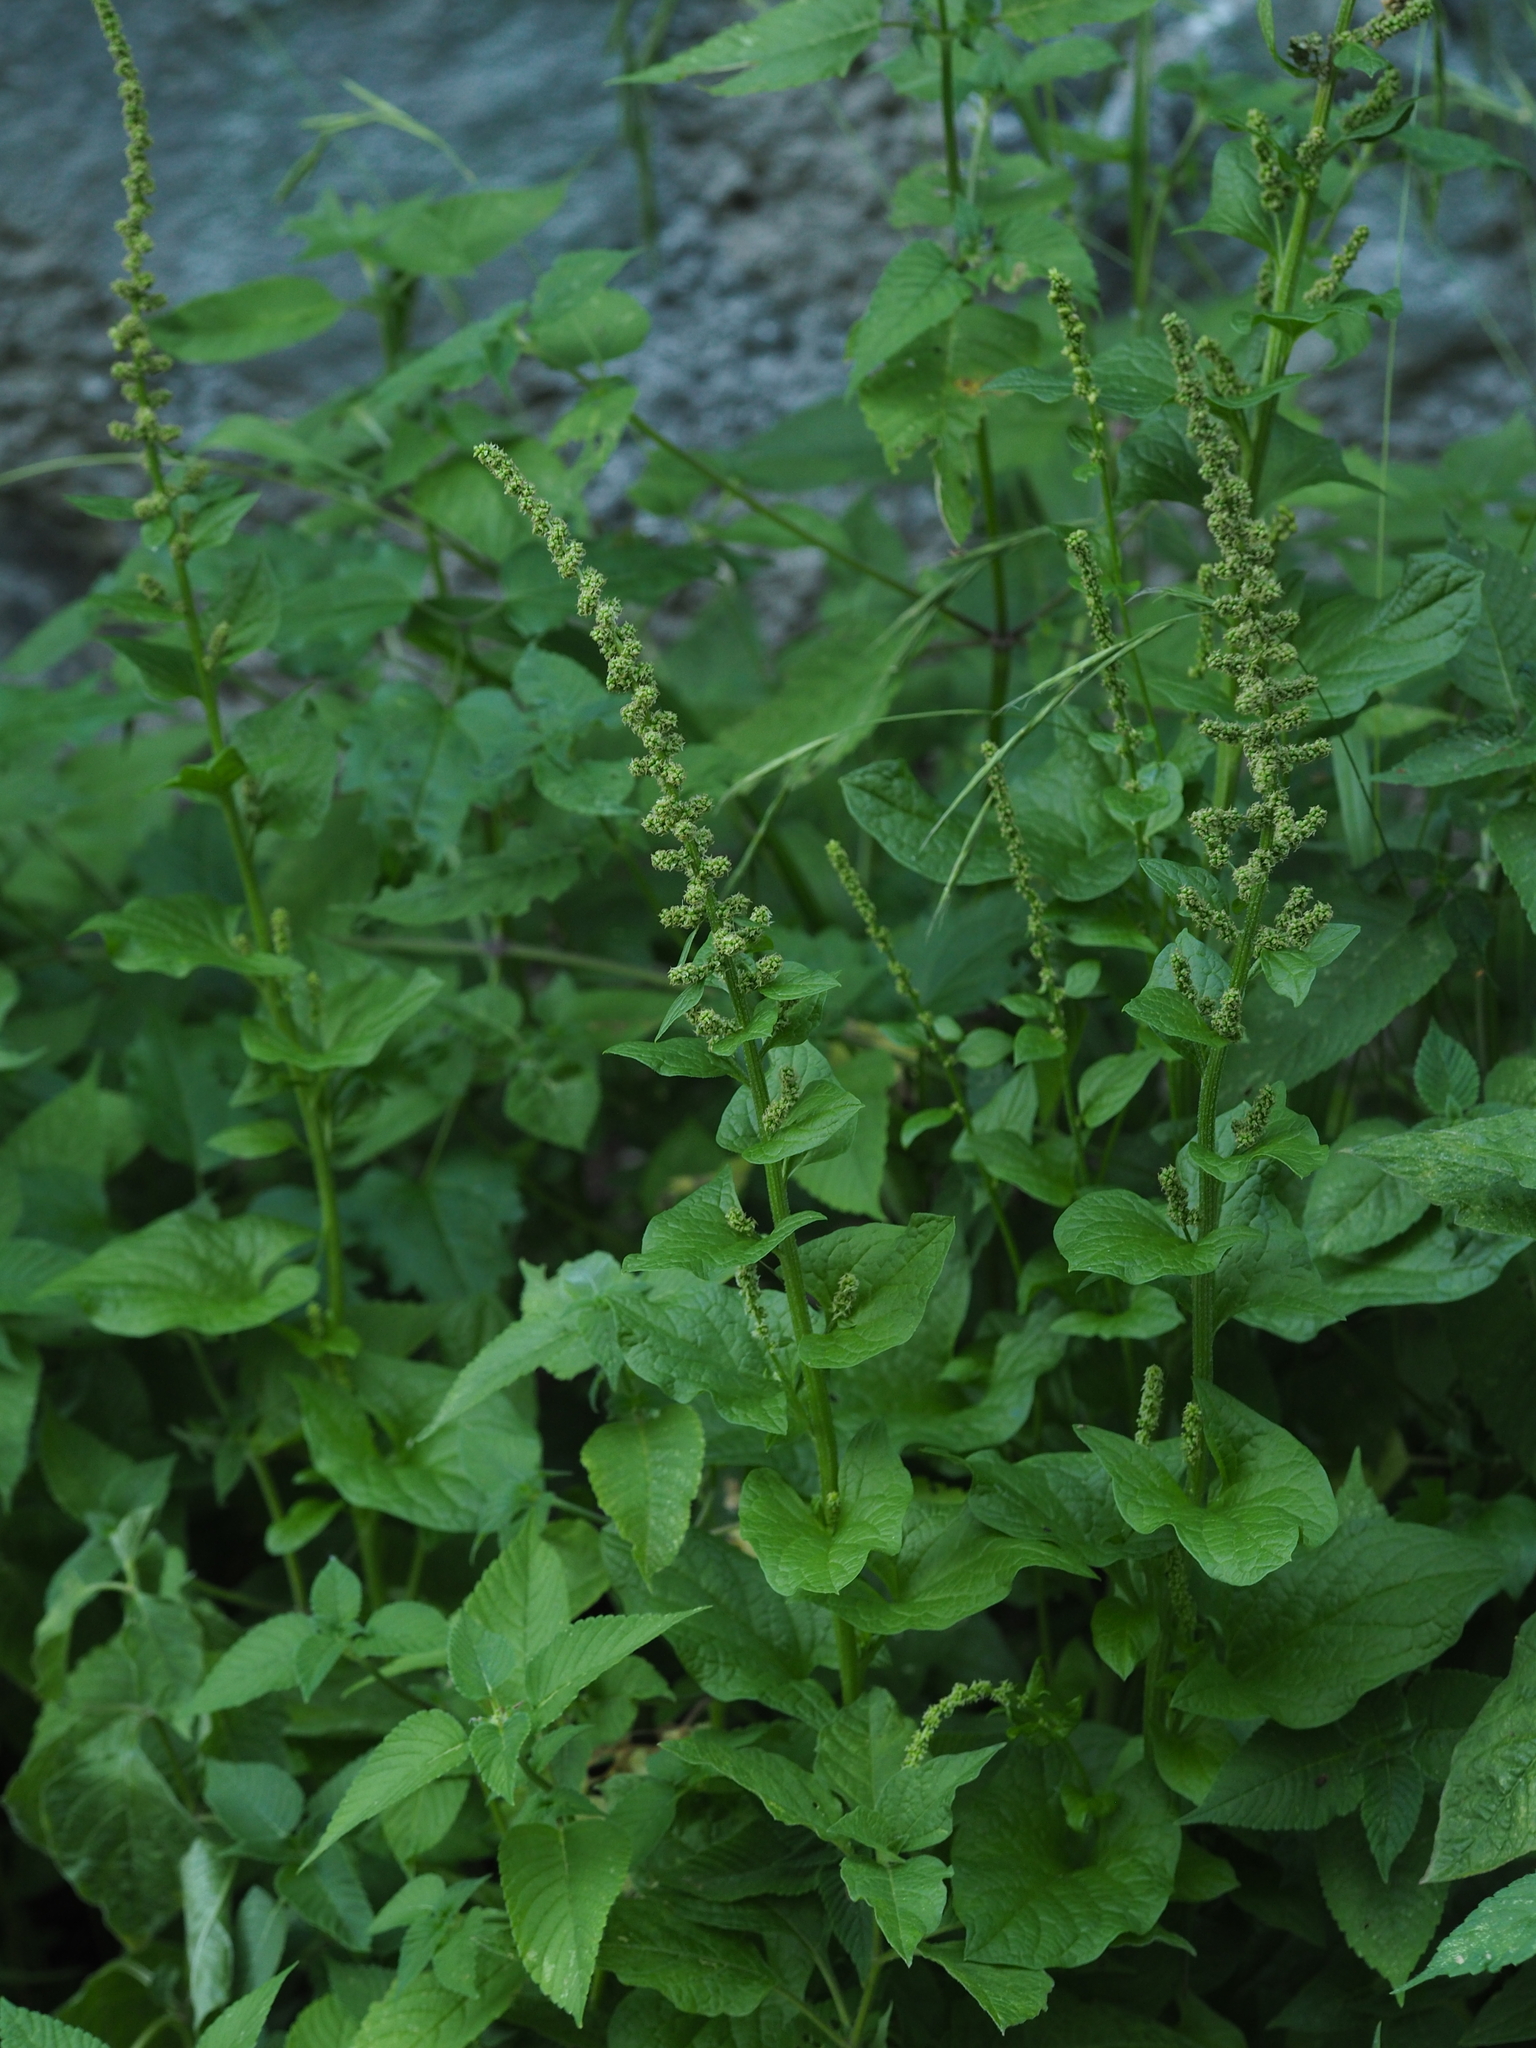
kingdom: Plantae
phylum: Tracheophyta
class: Magnoliopsida
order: Caryophyllales
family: Amaranthaceae
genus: Blitum
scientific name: Blitum bonus-henricus
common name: Good king henry
